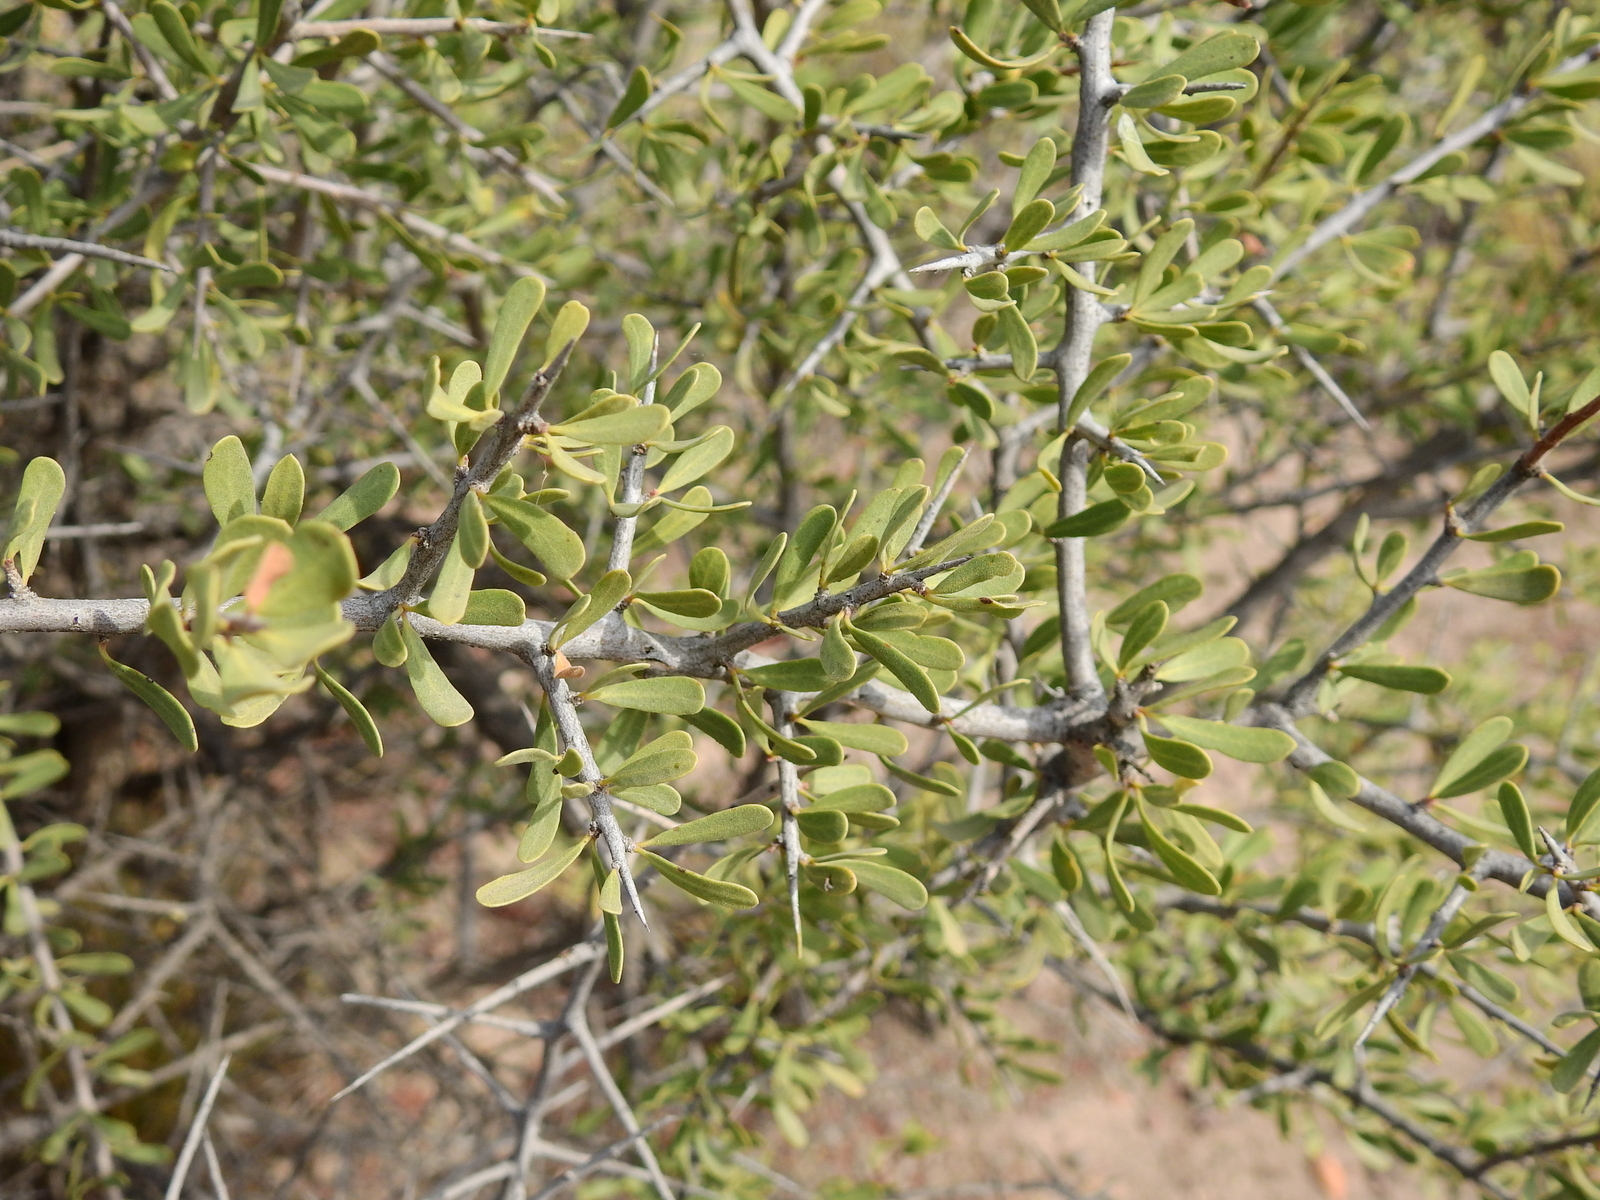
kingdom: Plantae
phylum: Tracheophyta
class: Magnoliopsida
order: Sapindales
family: Anacardiaceae
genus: Schinus
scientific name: Schinus johnstonii
